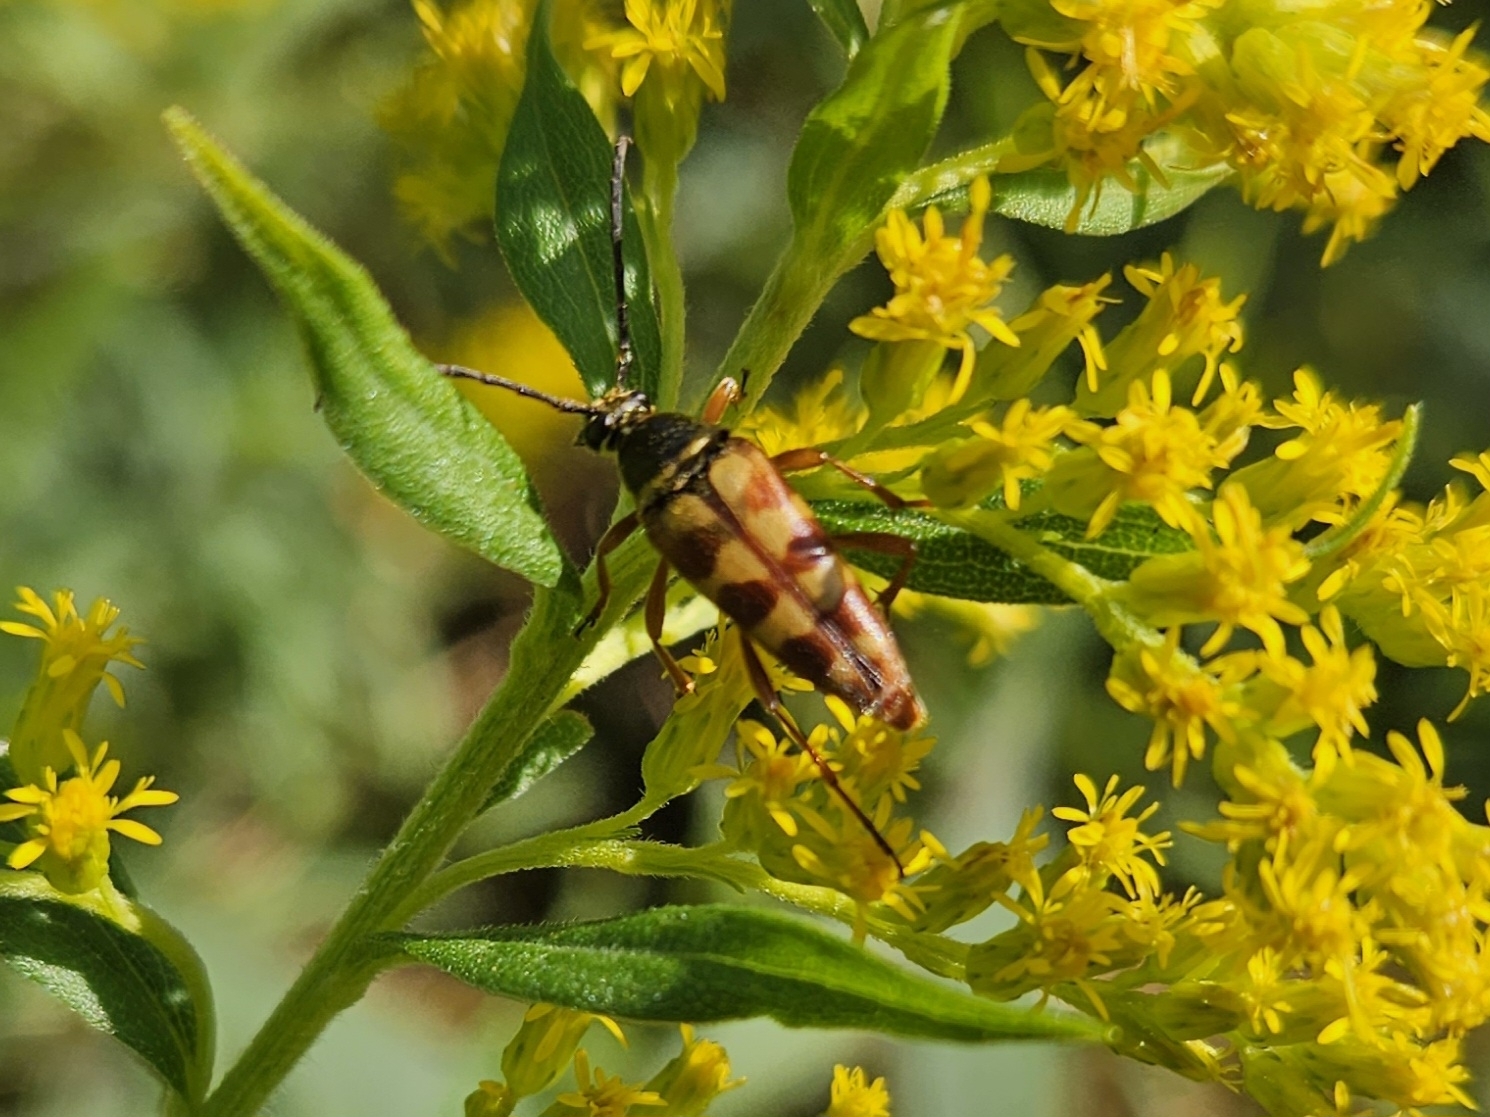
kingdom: Animalia
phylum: Arthropoda
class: Insecta
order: Coleoptera
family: Cerambycidae
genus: Typocerus
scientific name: Typocerus velutinus
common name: Banded longhorn beetle
